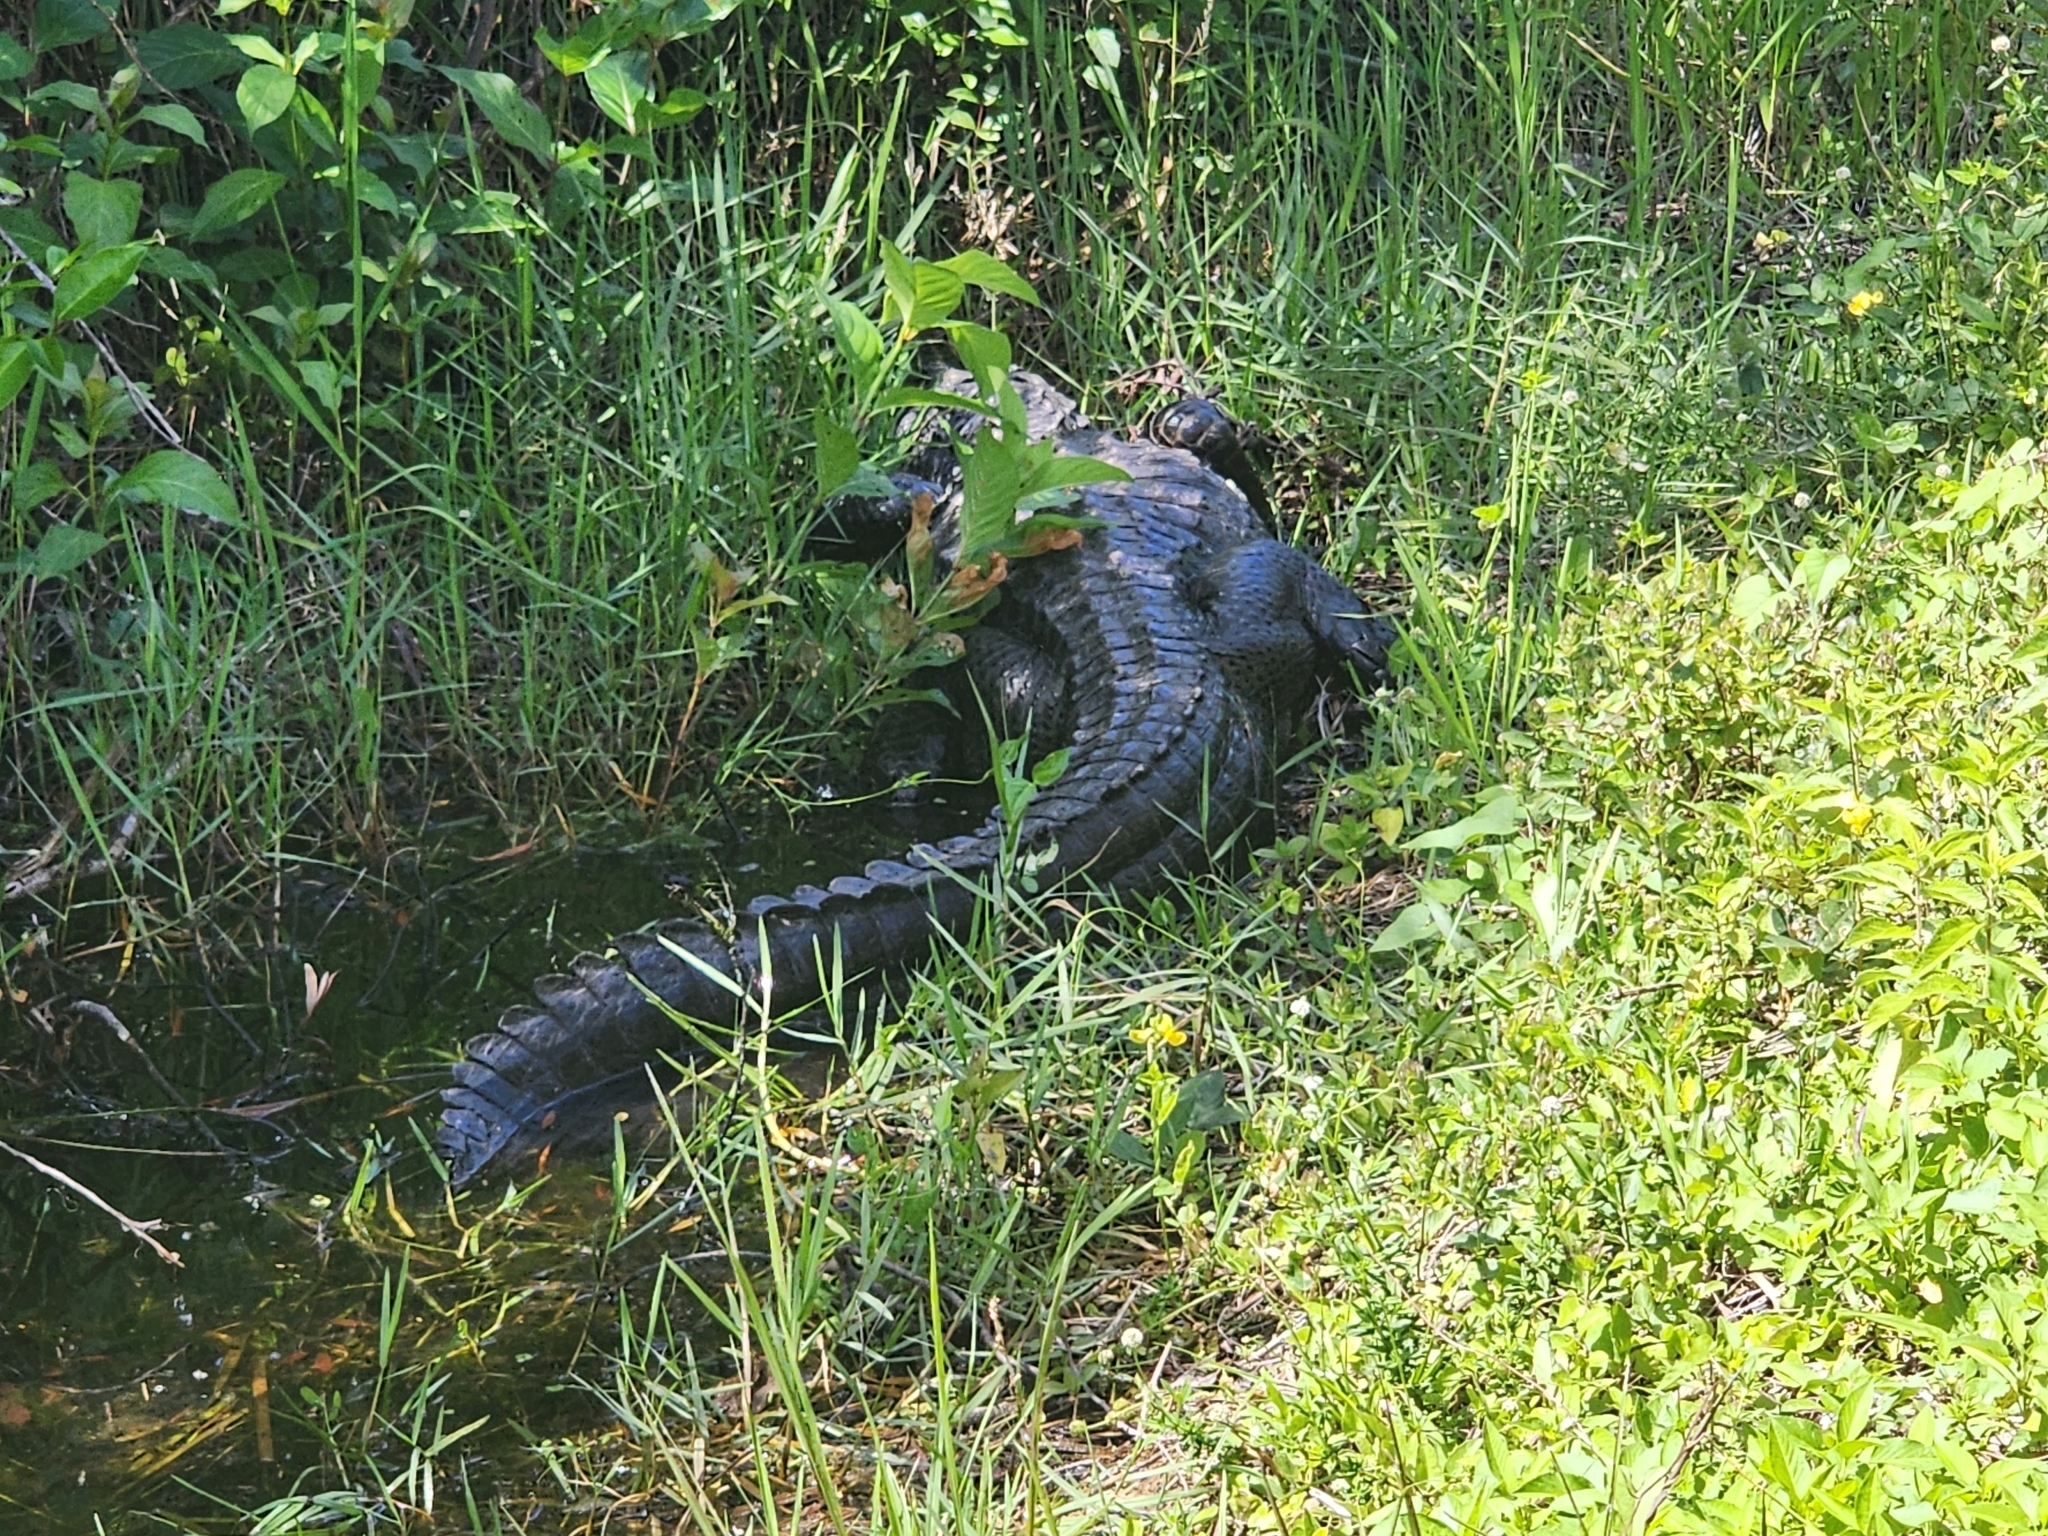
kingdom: Animalia
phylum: Chordata
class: Crocodylia
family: Alligatoridae
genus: Alligator
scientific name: Alligator mississippiensis
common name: American alligator
